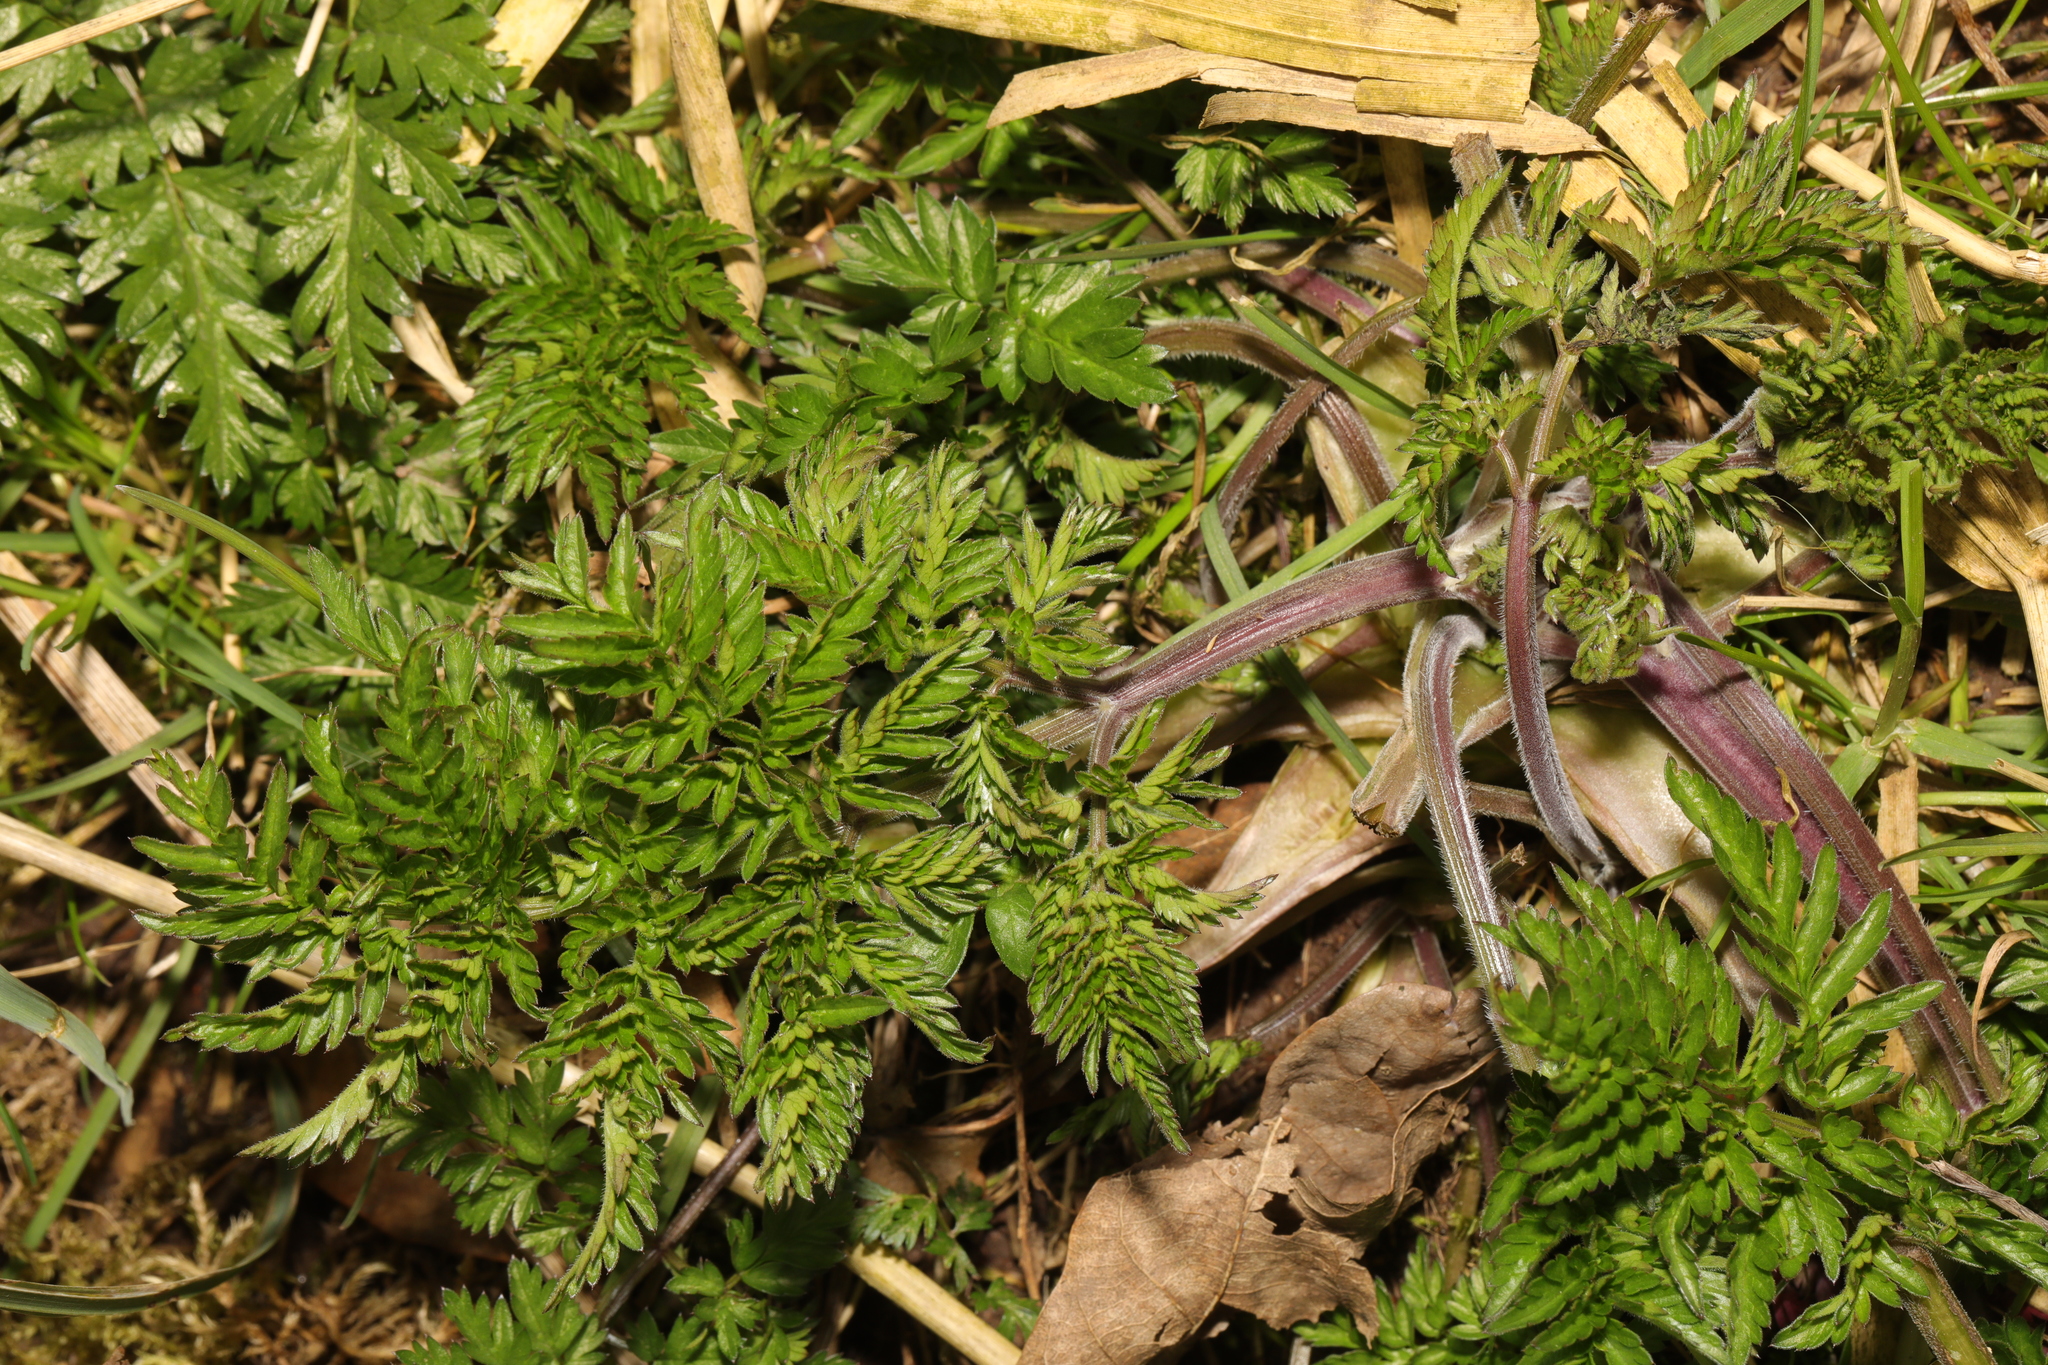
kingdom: Plantae
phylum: Tracheophyta
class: Magnoliopsida
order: Apiales
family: Apiaceae
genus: Anthriscus
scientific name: Anthriscus sylvestris
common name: Cow parsley
